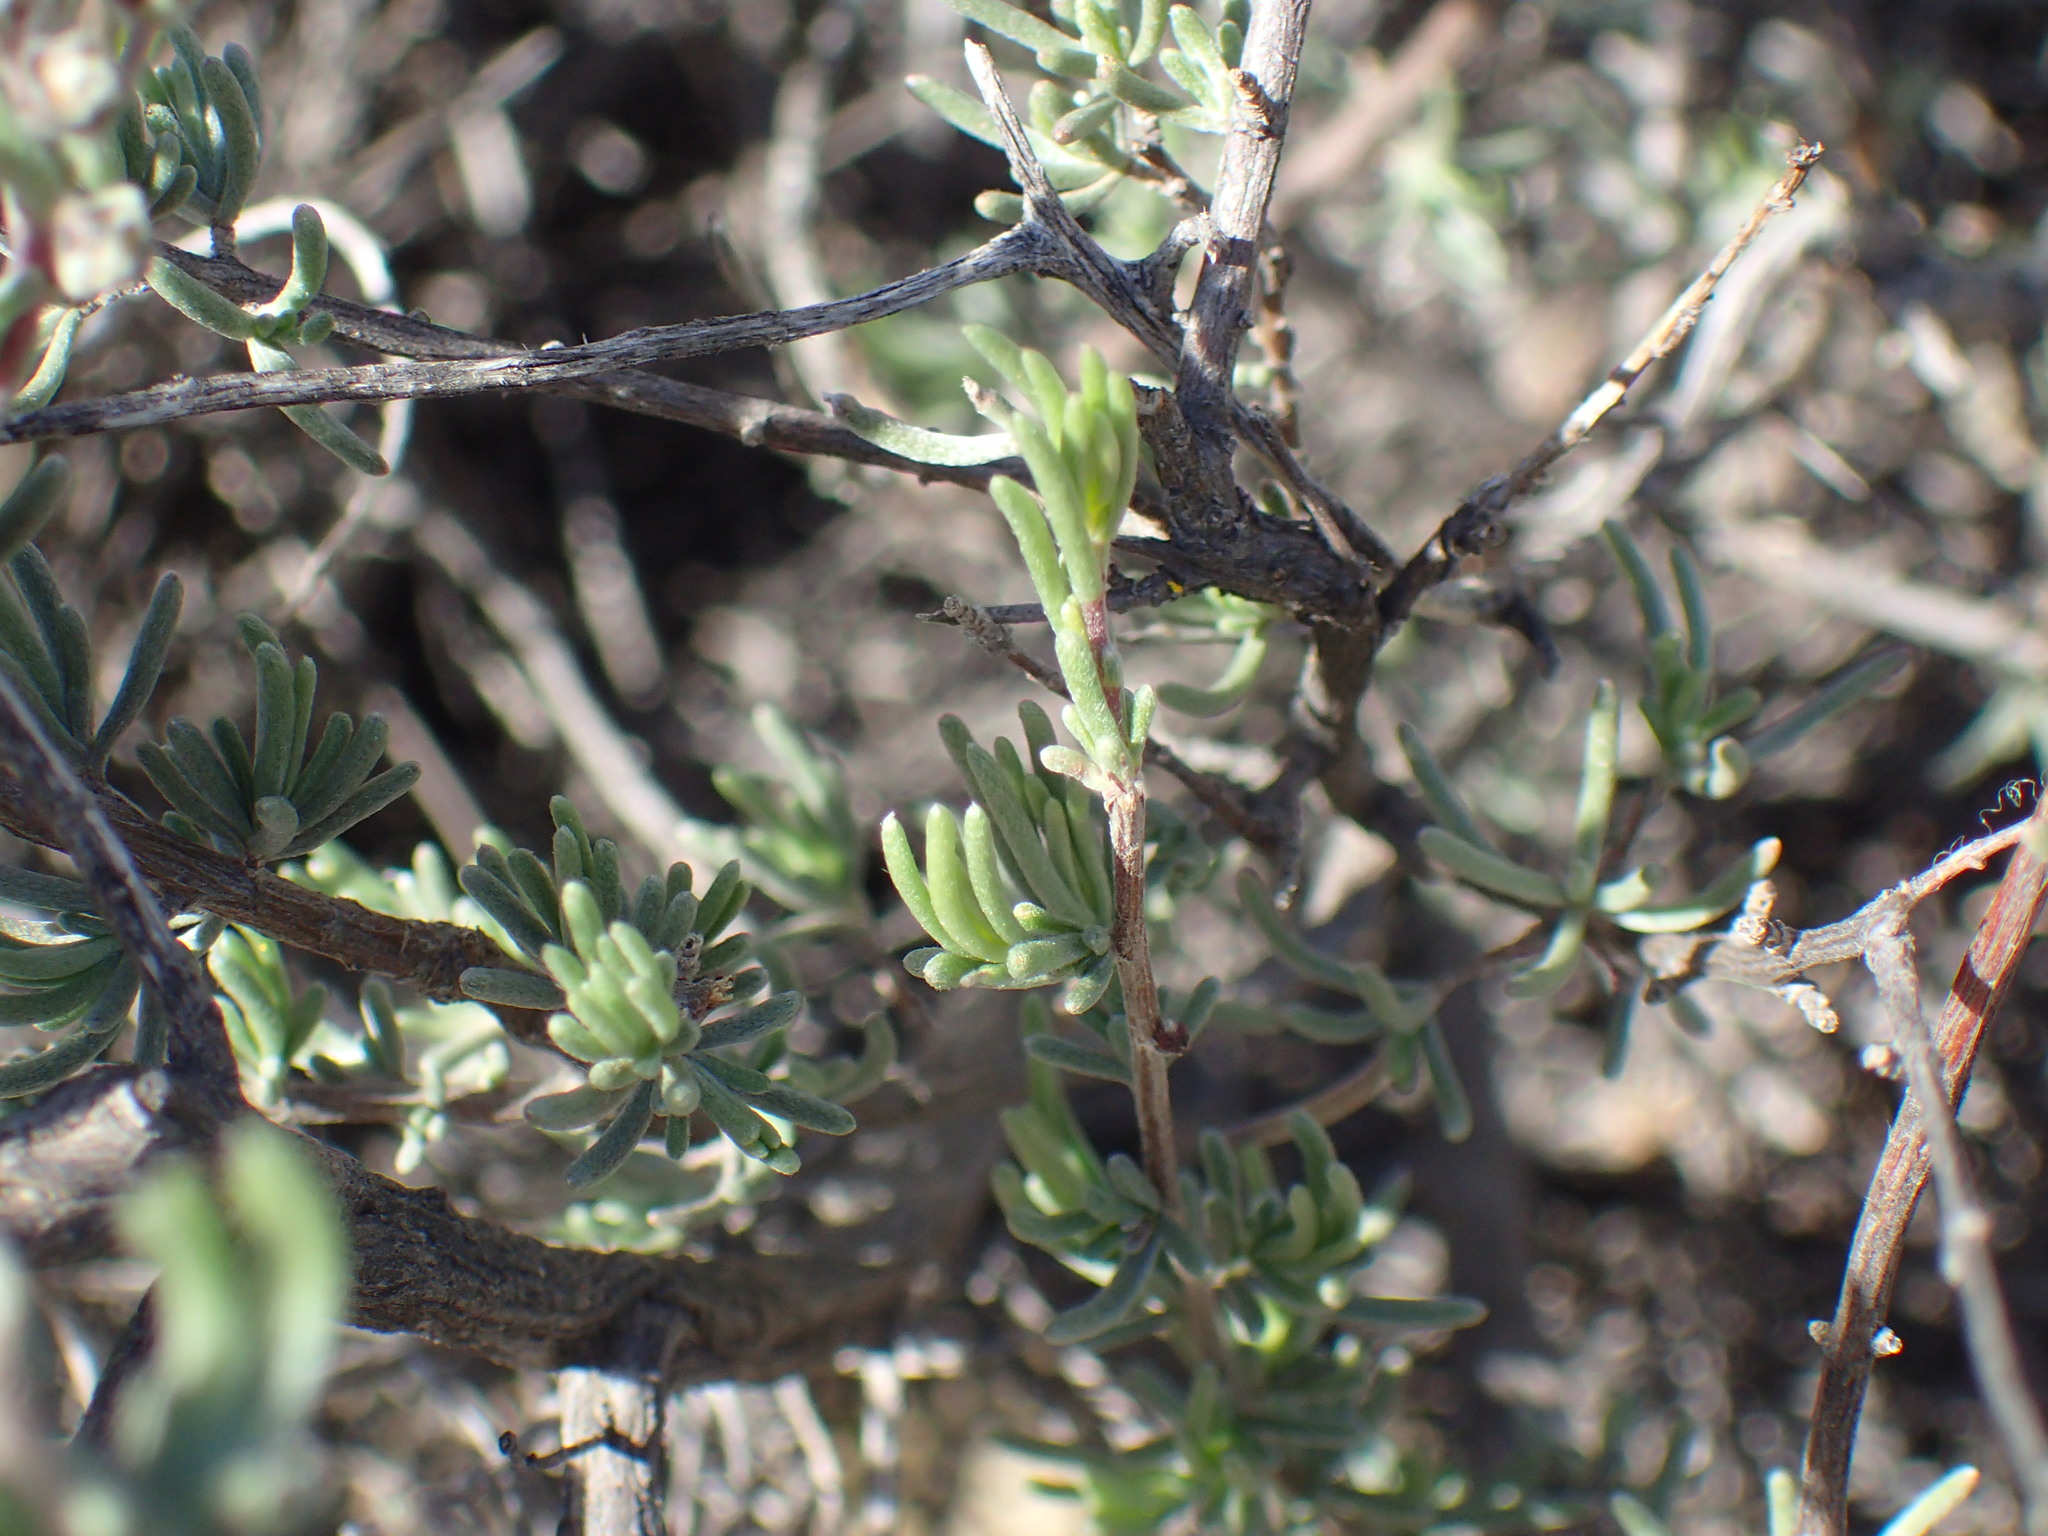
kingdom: Plantae
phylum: Tracheophyta
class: Magnoliopsida
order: Asterales
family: Asteraceae
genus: Eriocephalus
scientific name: Eriocephalus africanus
